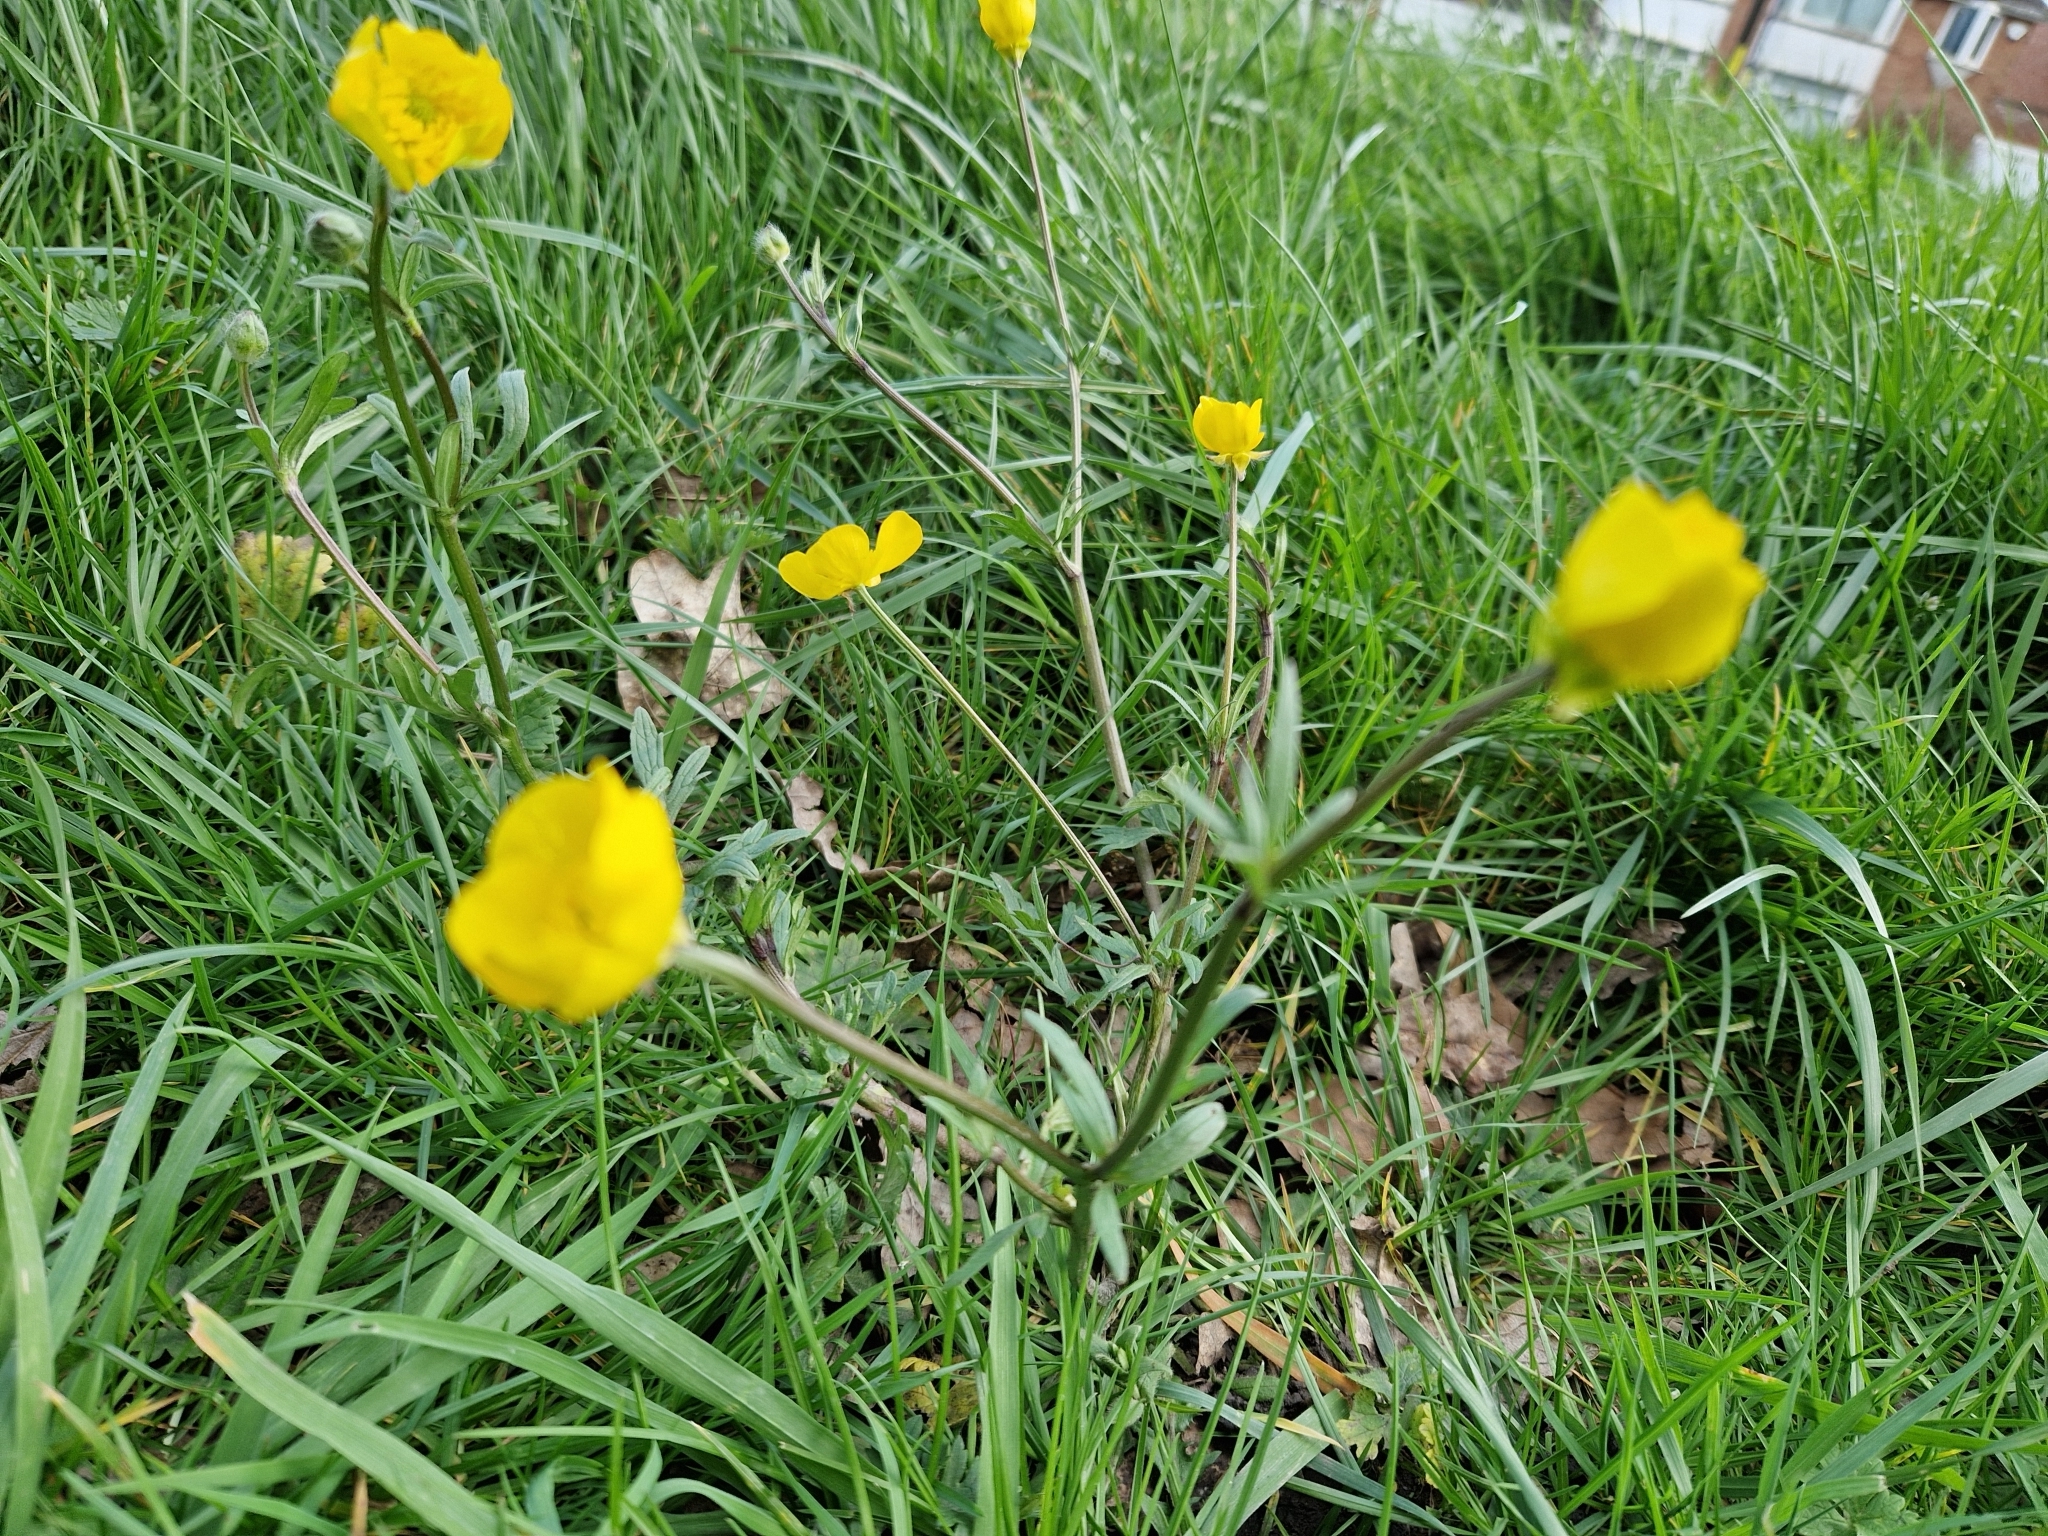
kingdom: Plantae
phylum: Tracheophyta
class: Magnoliopsida
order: Ranunculales
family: Ranunculaceae
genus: Ranunculus
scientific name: Ranunculus bulbosus
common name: Bulbous buttercup
